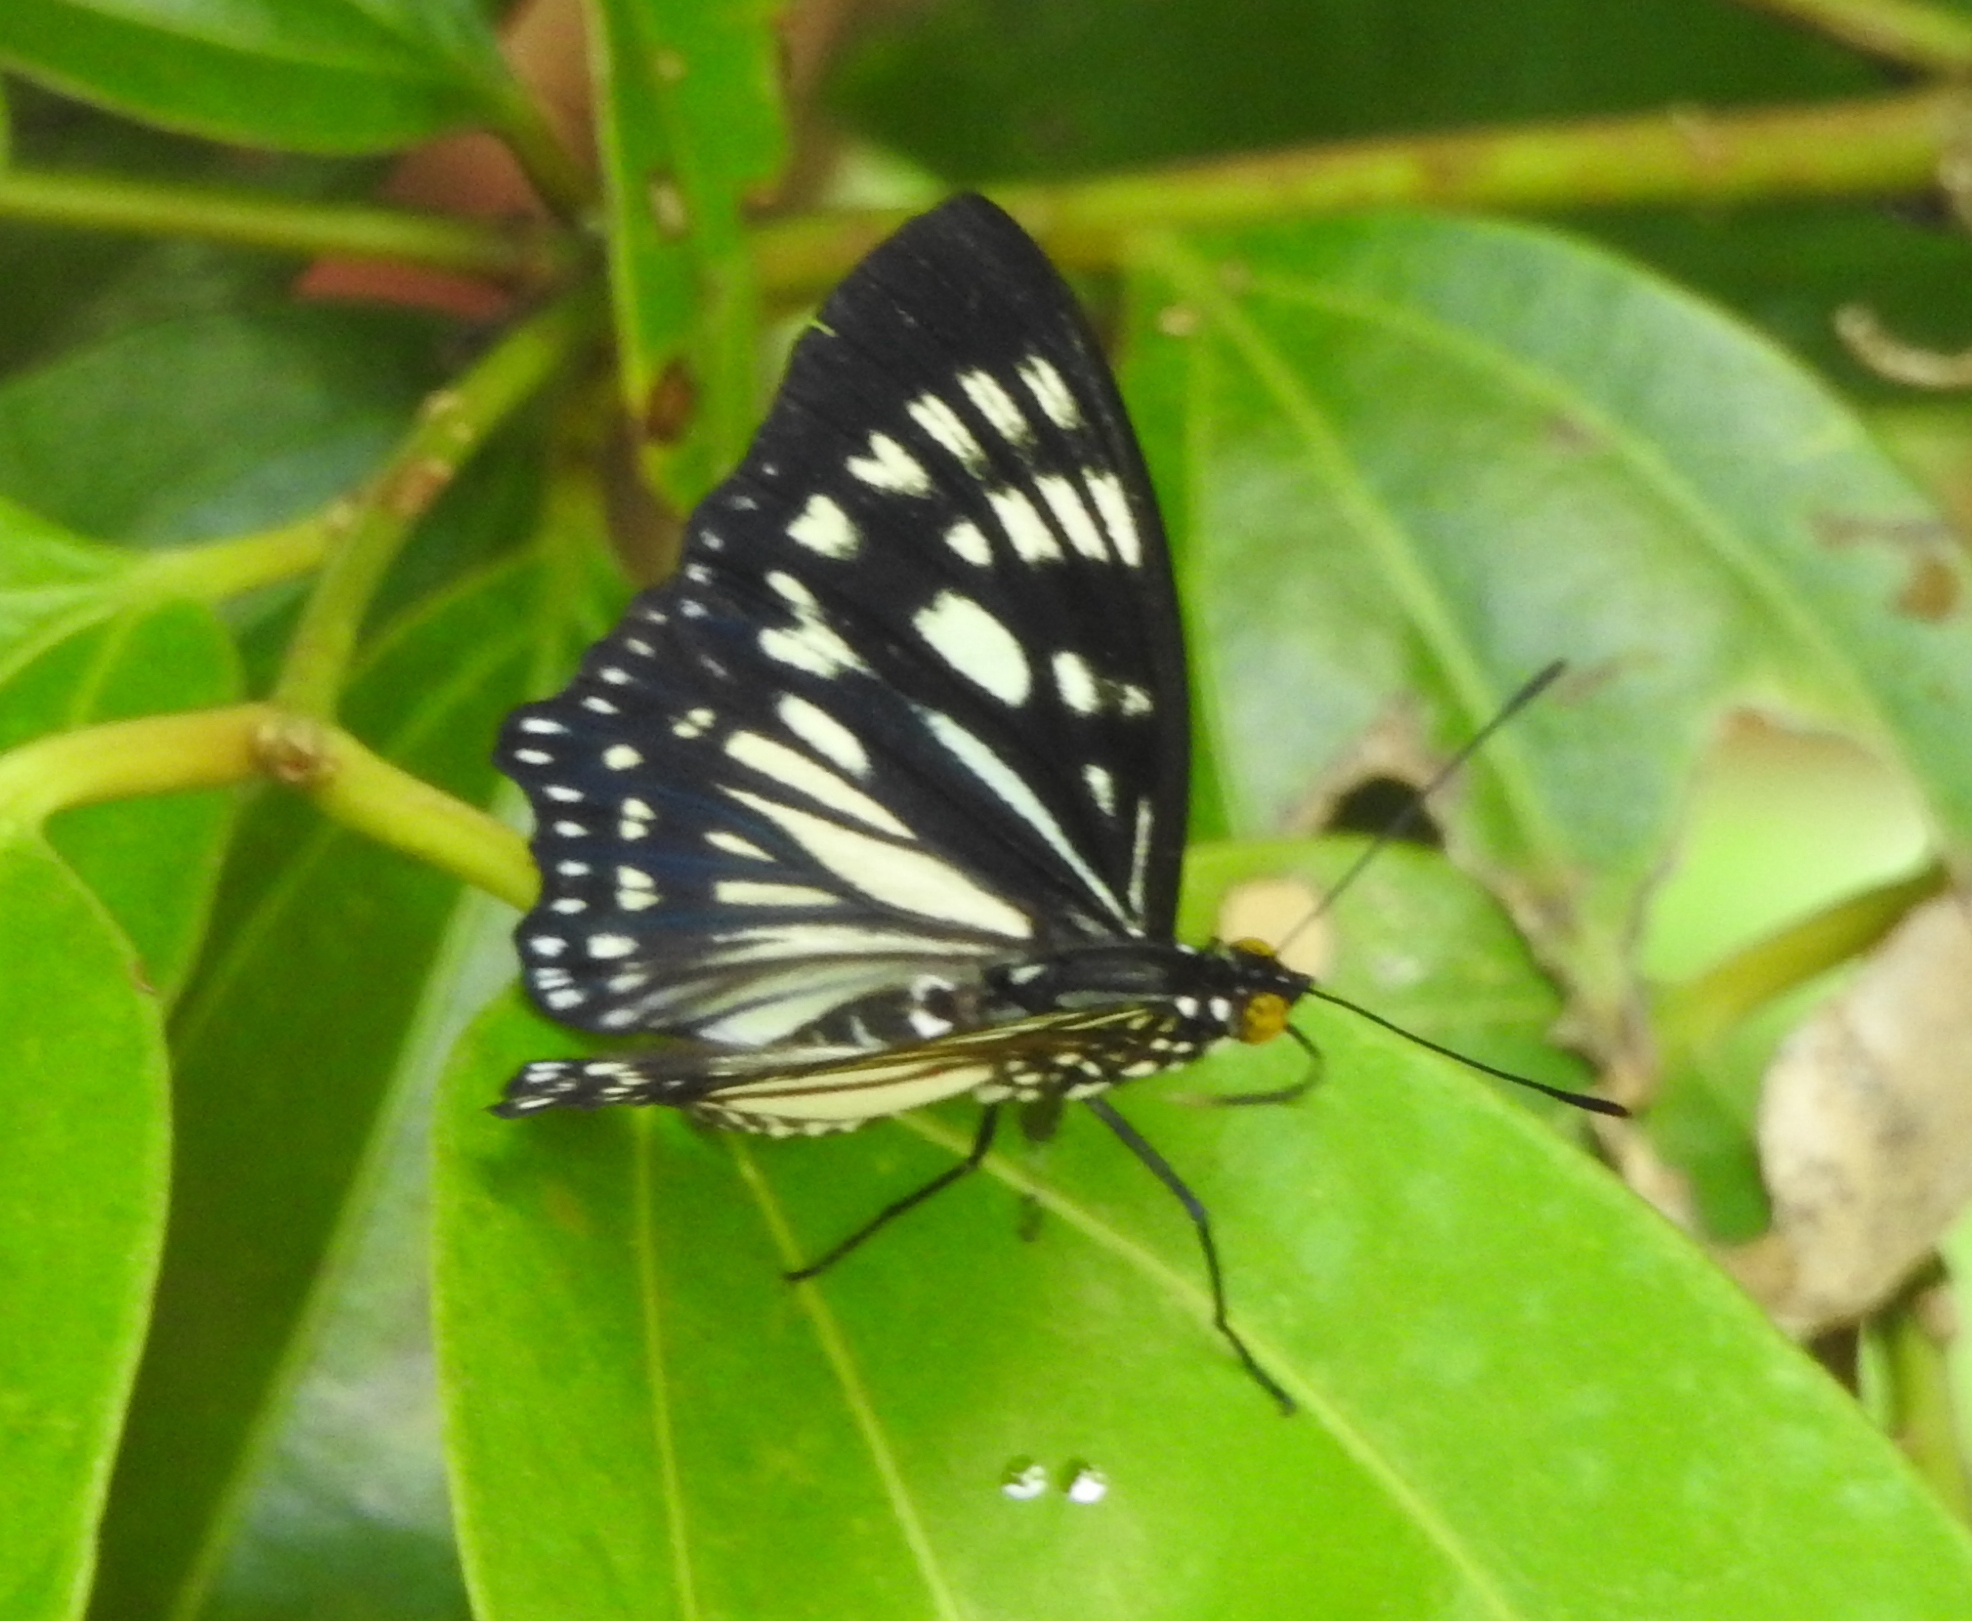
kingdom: Animalia
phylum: Arthropoda
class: Insecta
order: Lepidoptera
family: Nymphalidae
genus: Euripus
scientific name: Euripus nyctelius
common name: Courtesan
